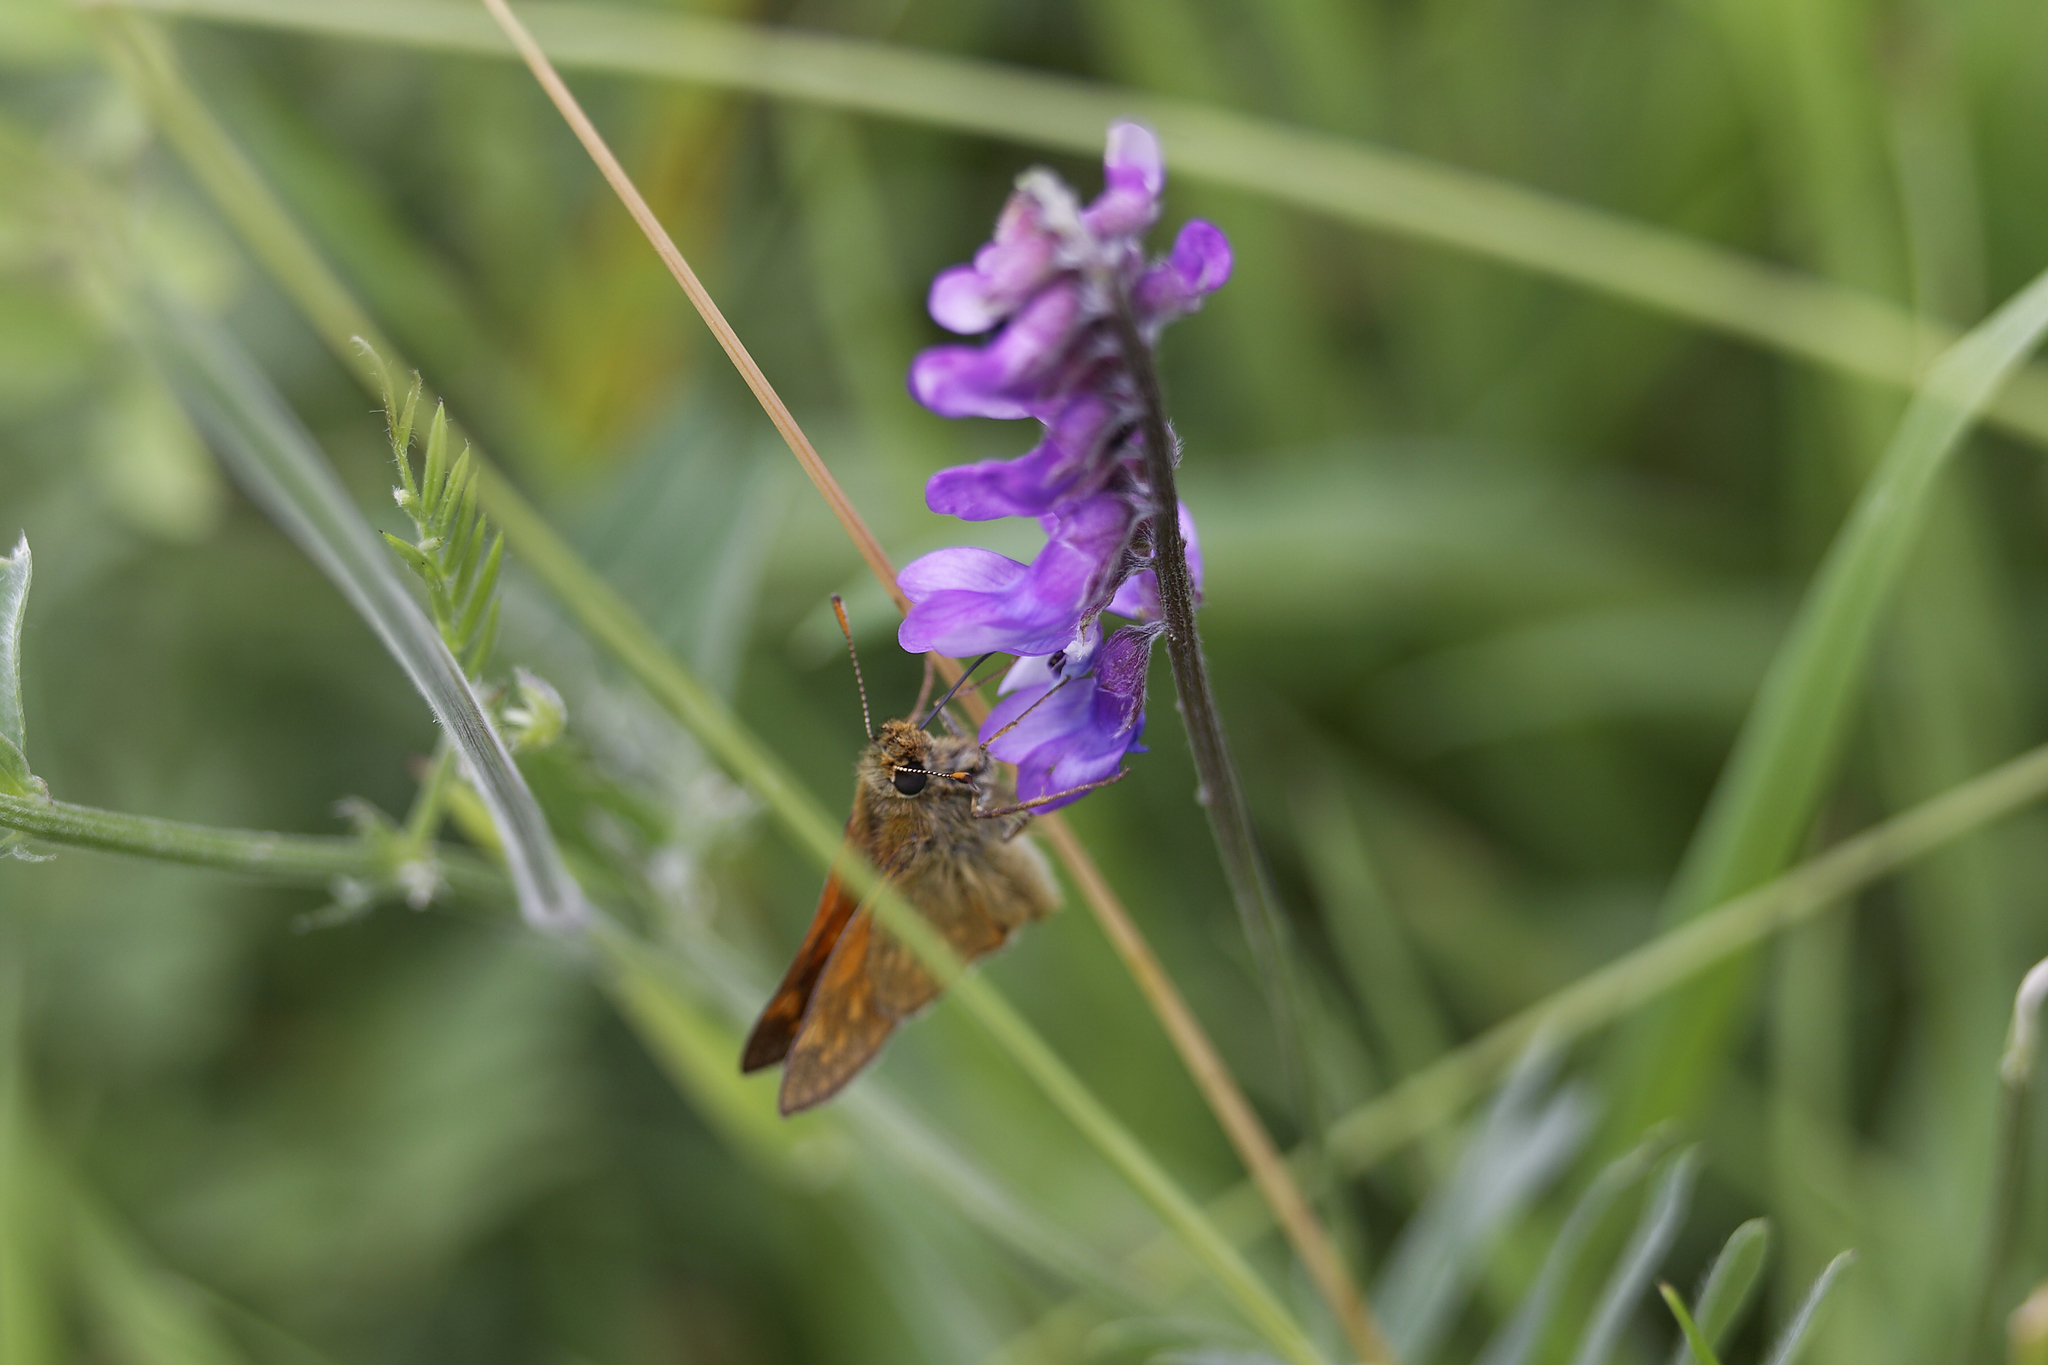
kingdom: Animalia
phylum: Arthropoda
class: Insecta
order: Lepidoptera
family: Hesperiidae
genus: Ochlodes
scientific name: Ochlodes venata
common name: Large skipper
